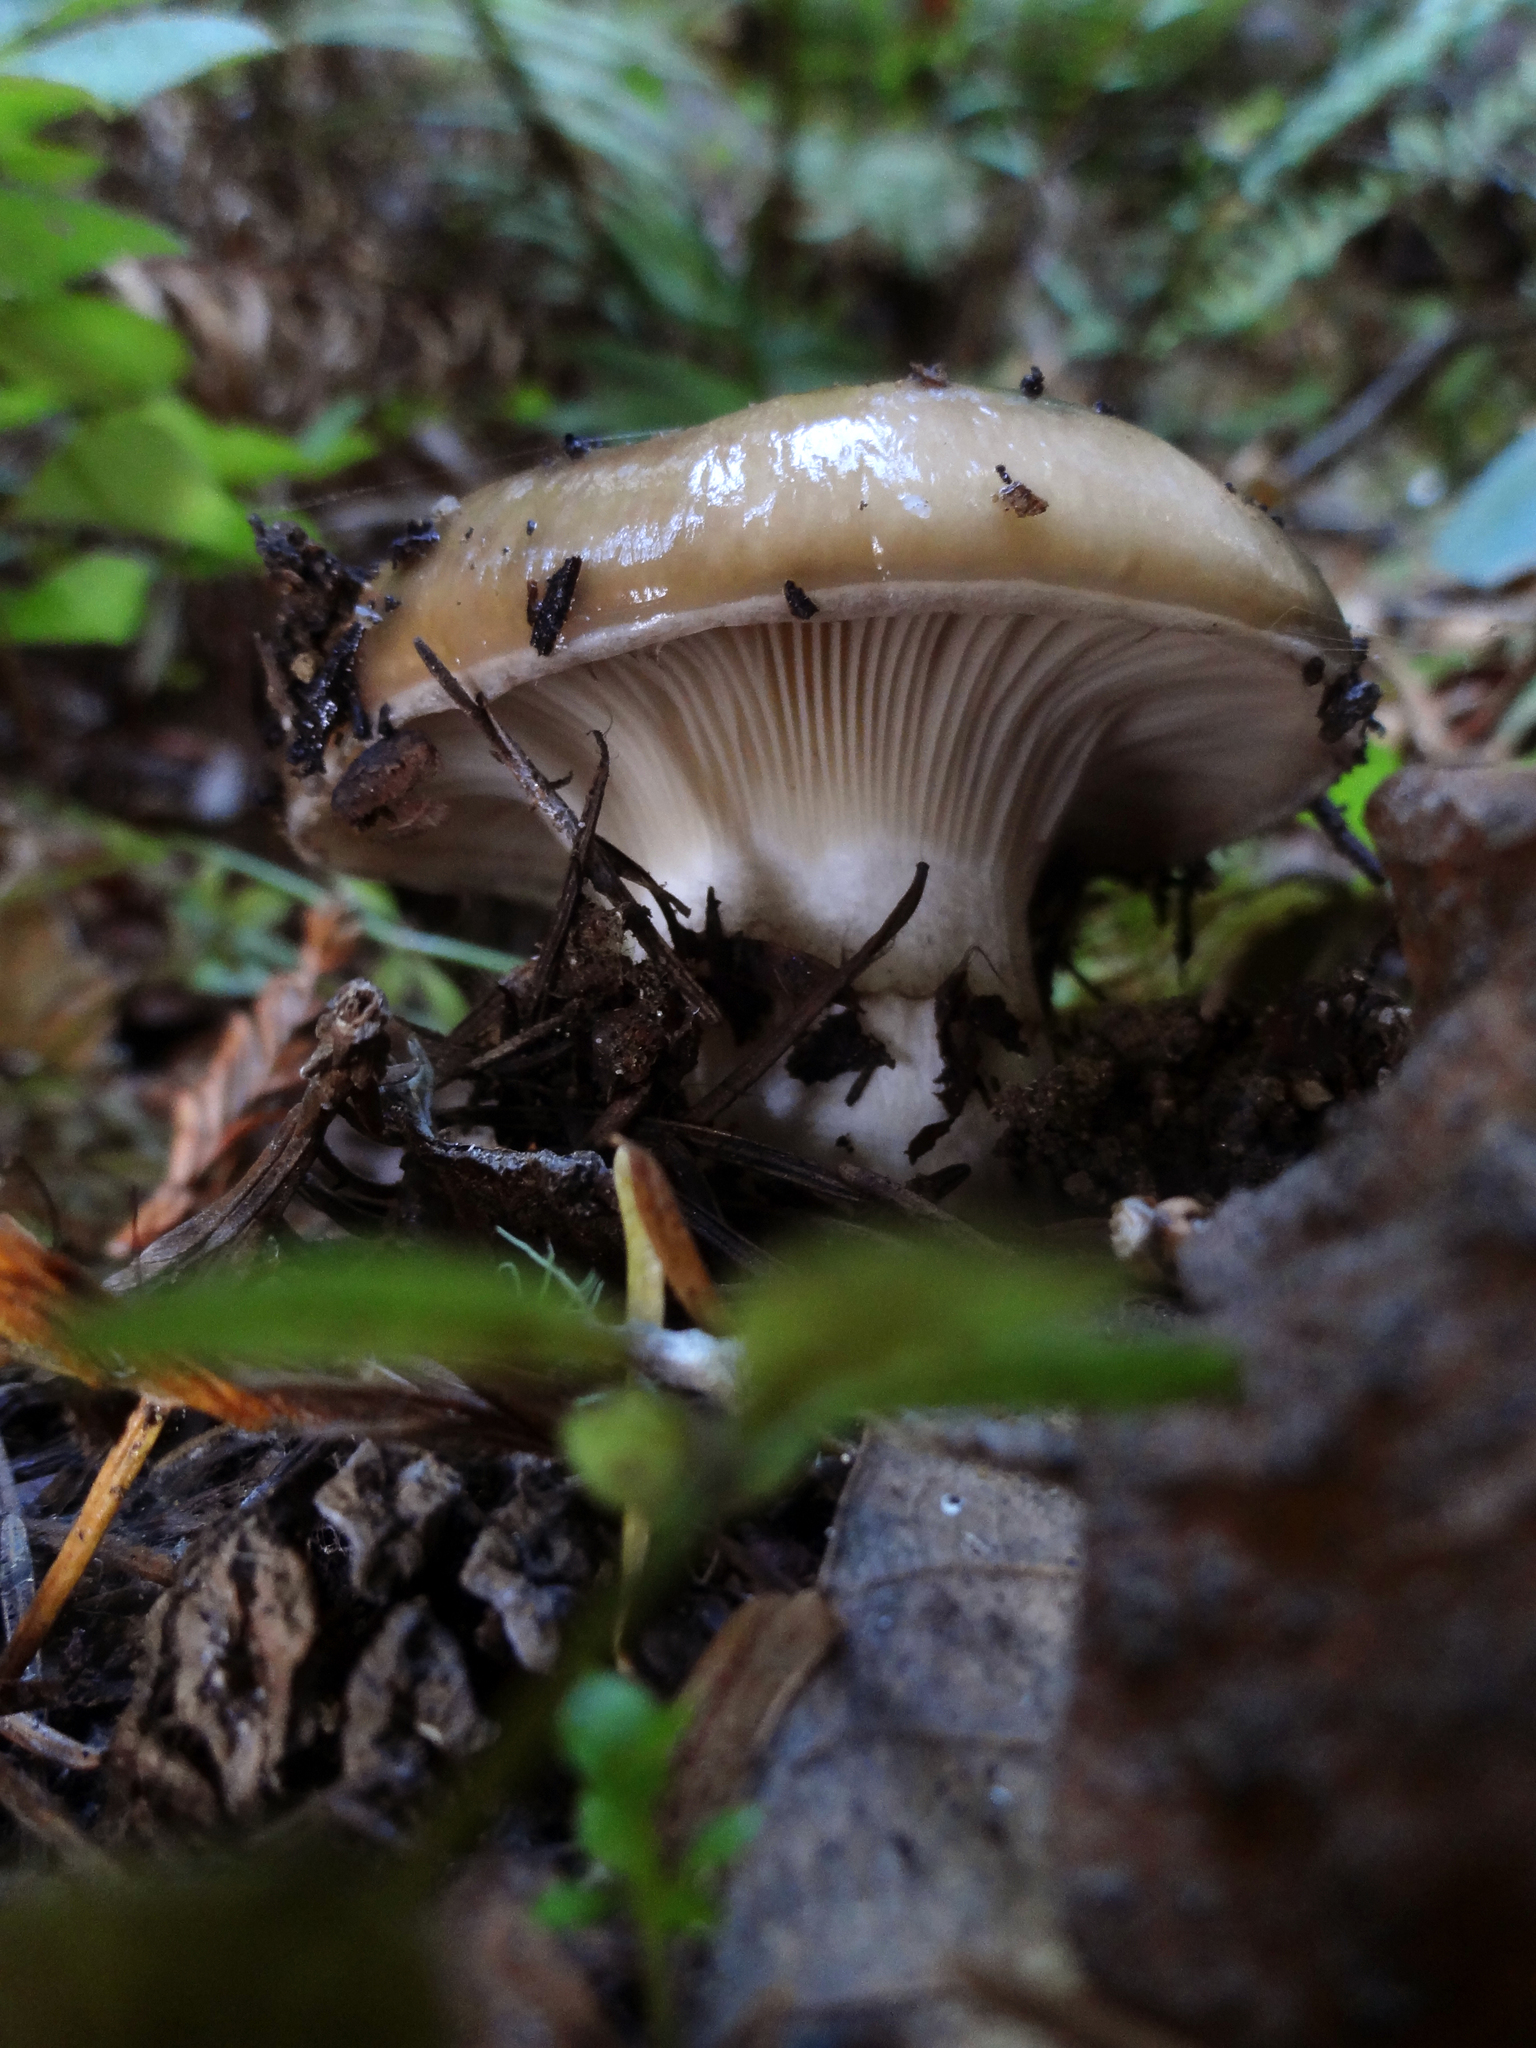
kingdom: Fungi
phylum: Basidiomycota
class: Agaricomycetes
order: Boletales
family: Gomphidiaceae
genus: Gomphidius
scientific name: Gomphidius oregonensis
